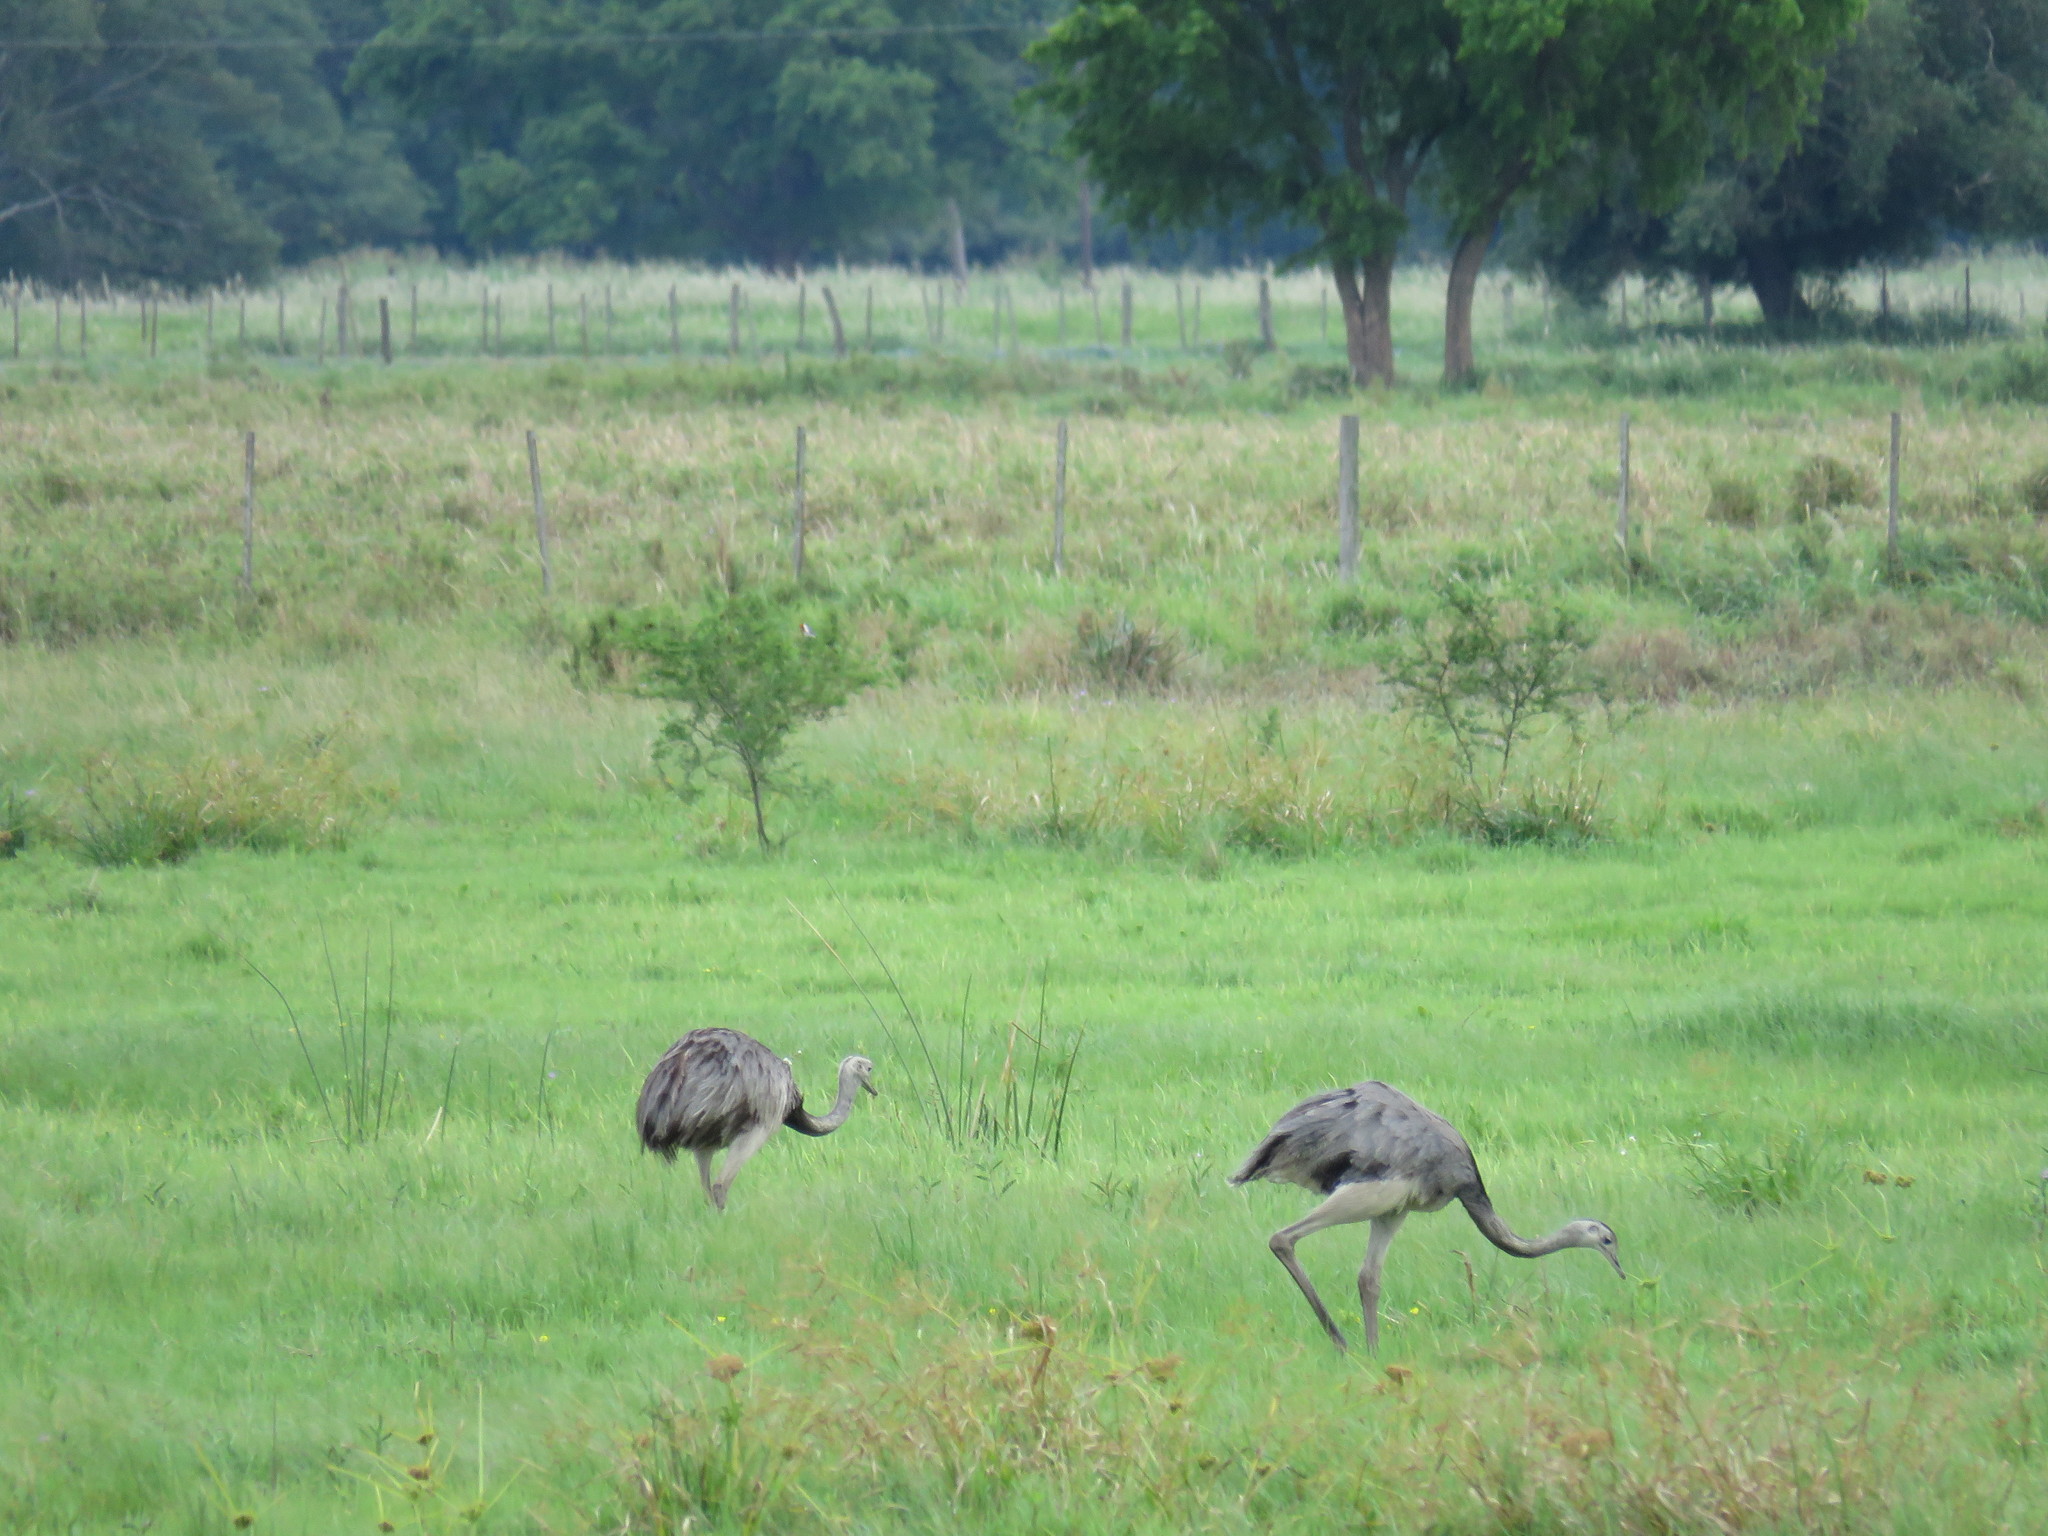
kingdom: Animalia
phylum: Chordata
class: Aves
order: Rheiformes
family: Rheidae
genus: Rhea
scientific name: Rhea americana
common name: Greater rhea
